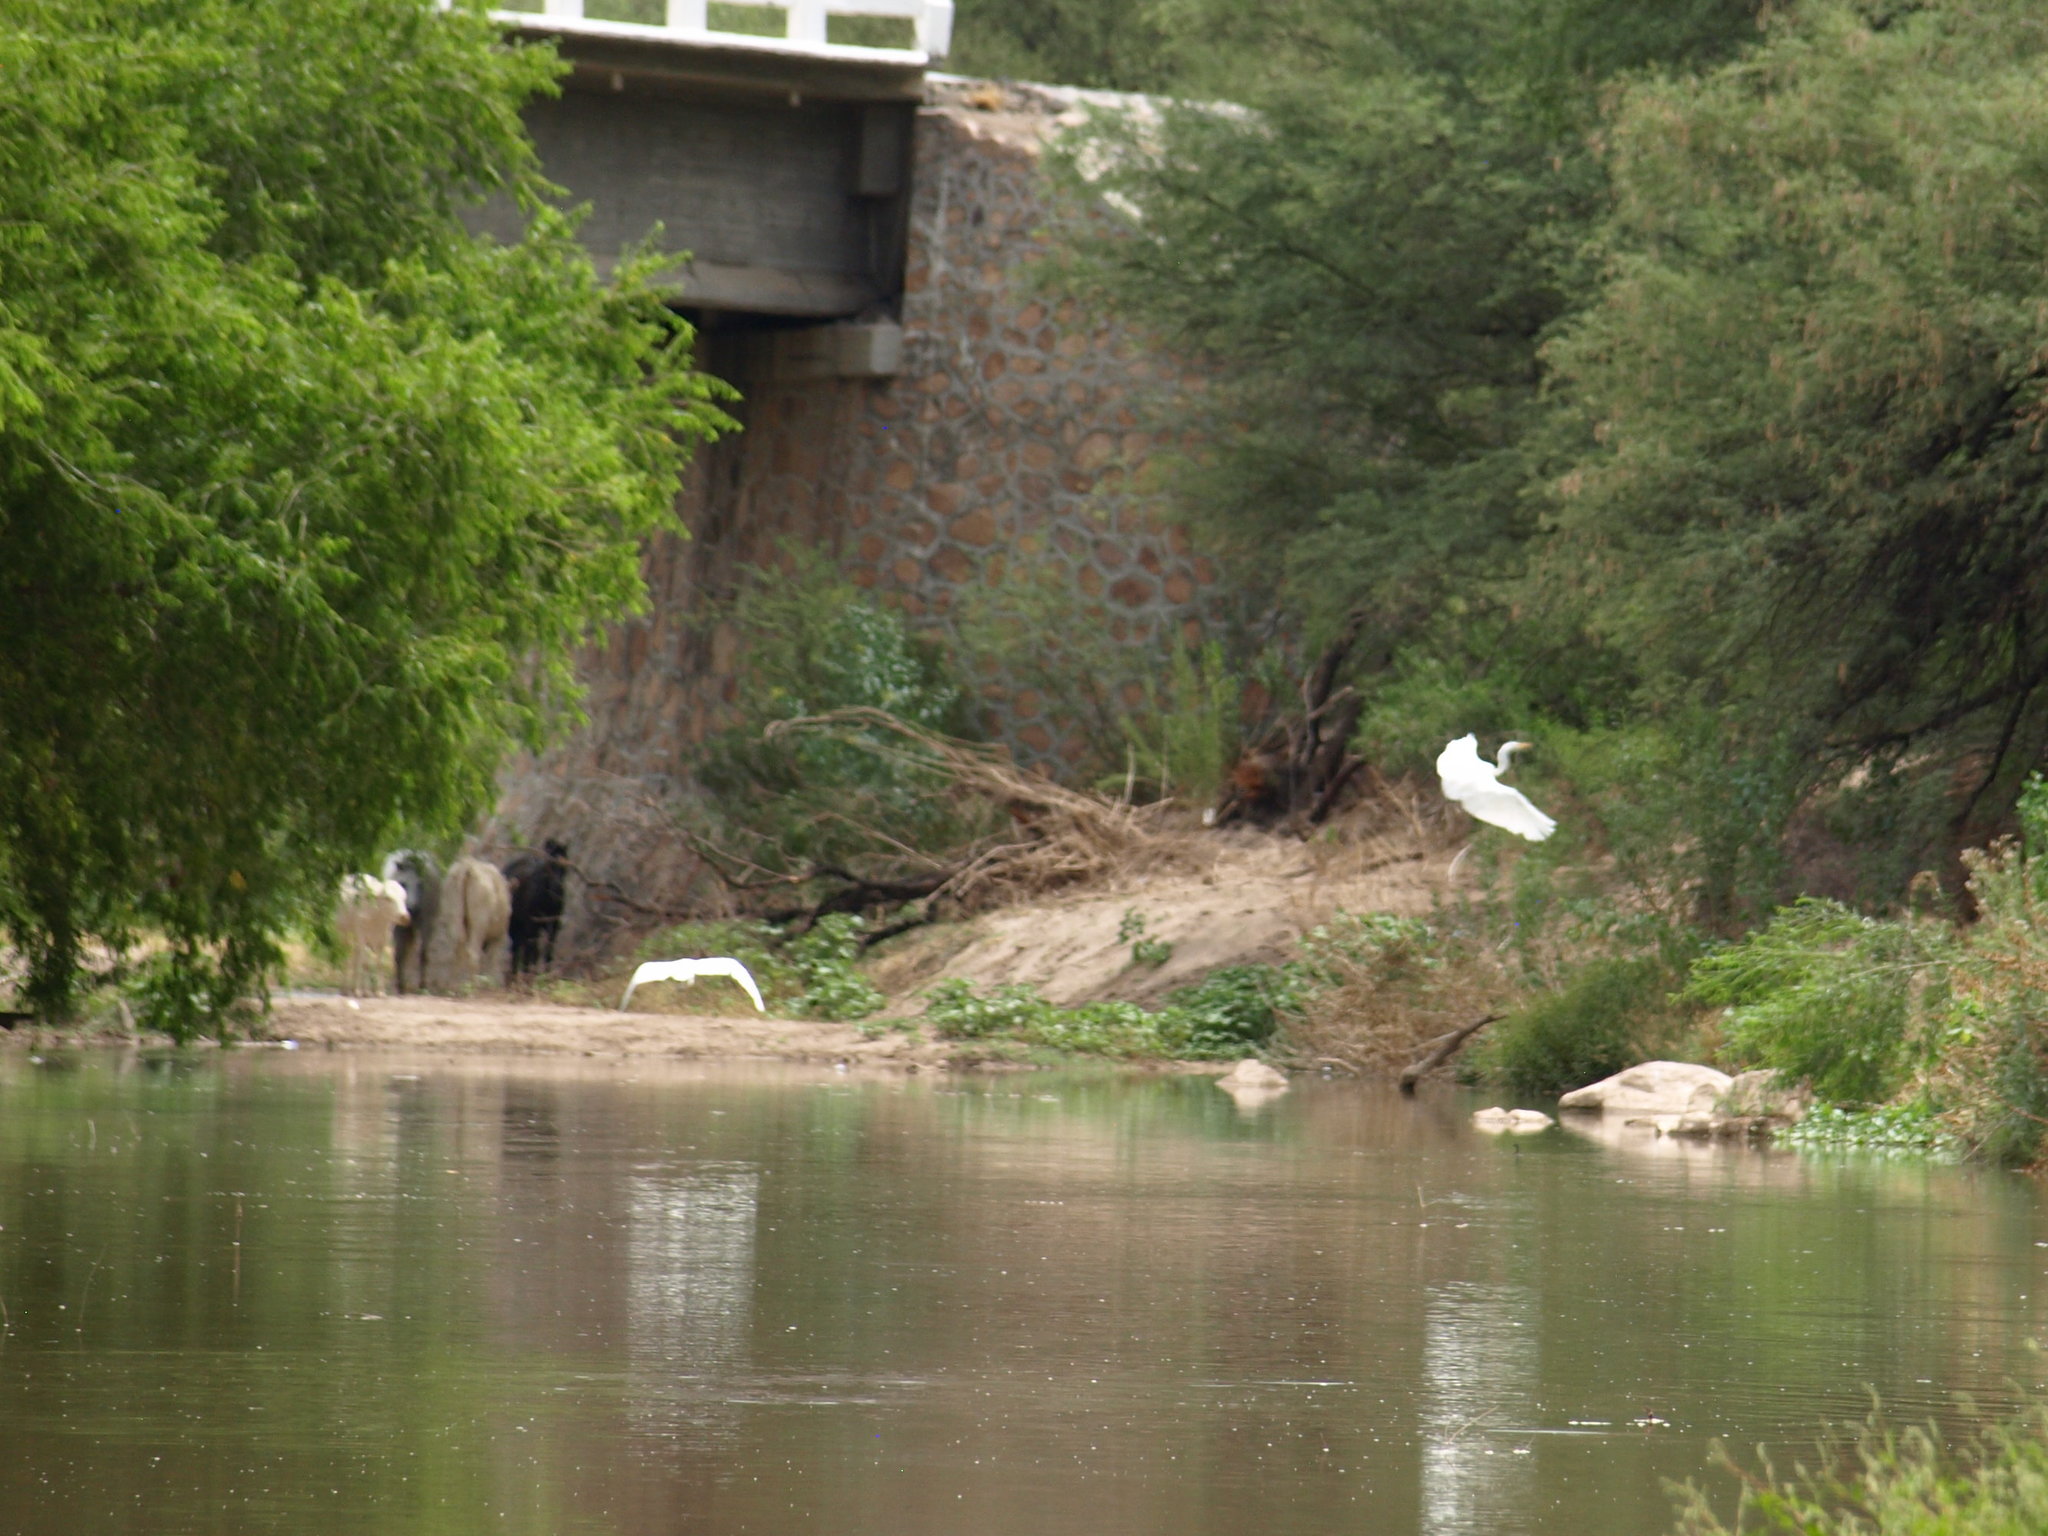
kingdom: Animalia
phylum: Chordata
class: Aves
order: Pelecaniformes
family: Ardeidae
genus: Ardea
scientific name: Ardea alba
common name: Great egret
